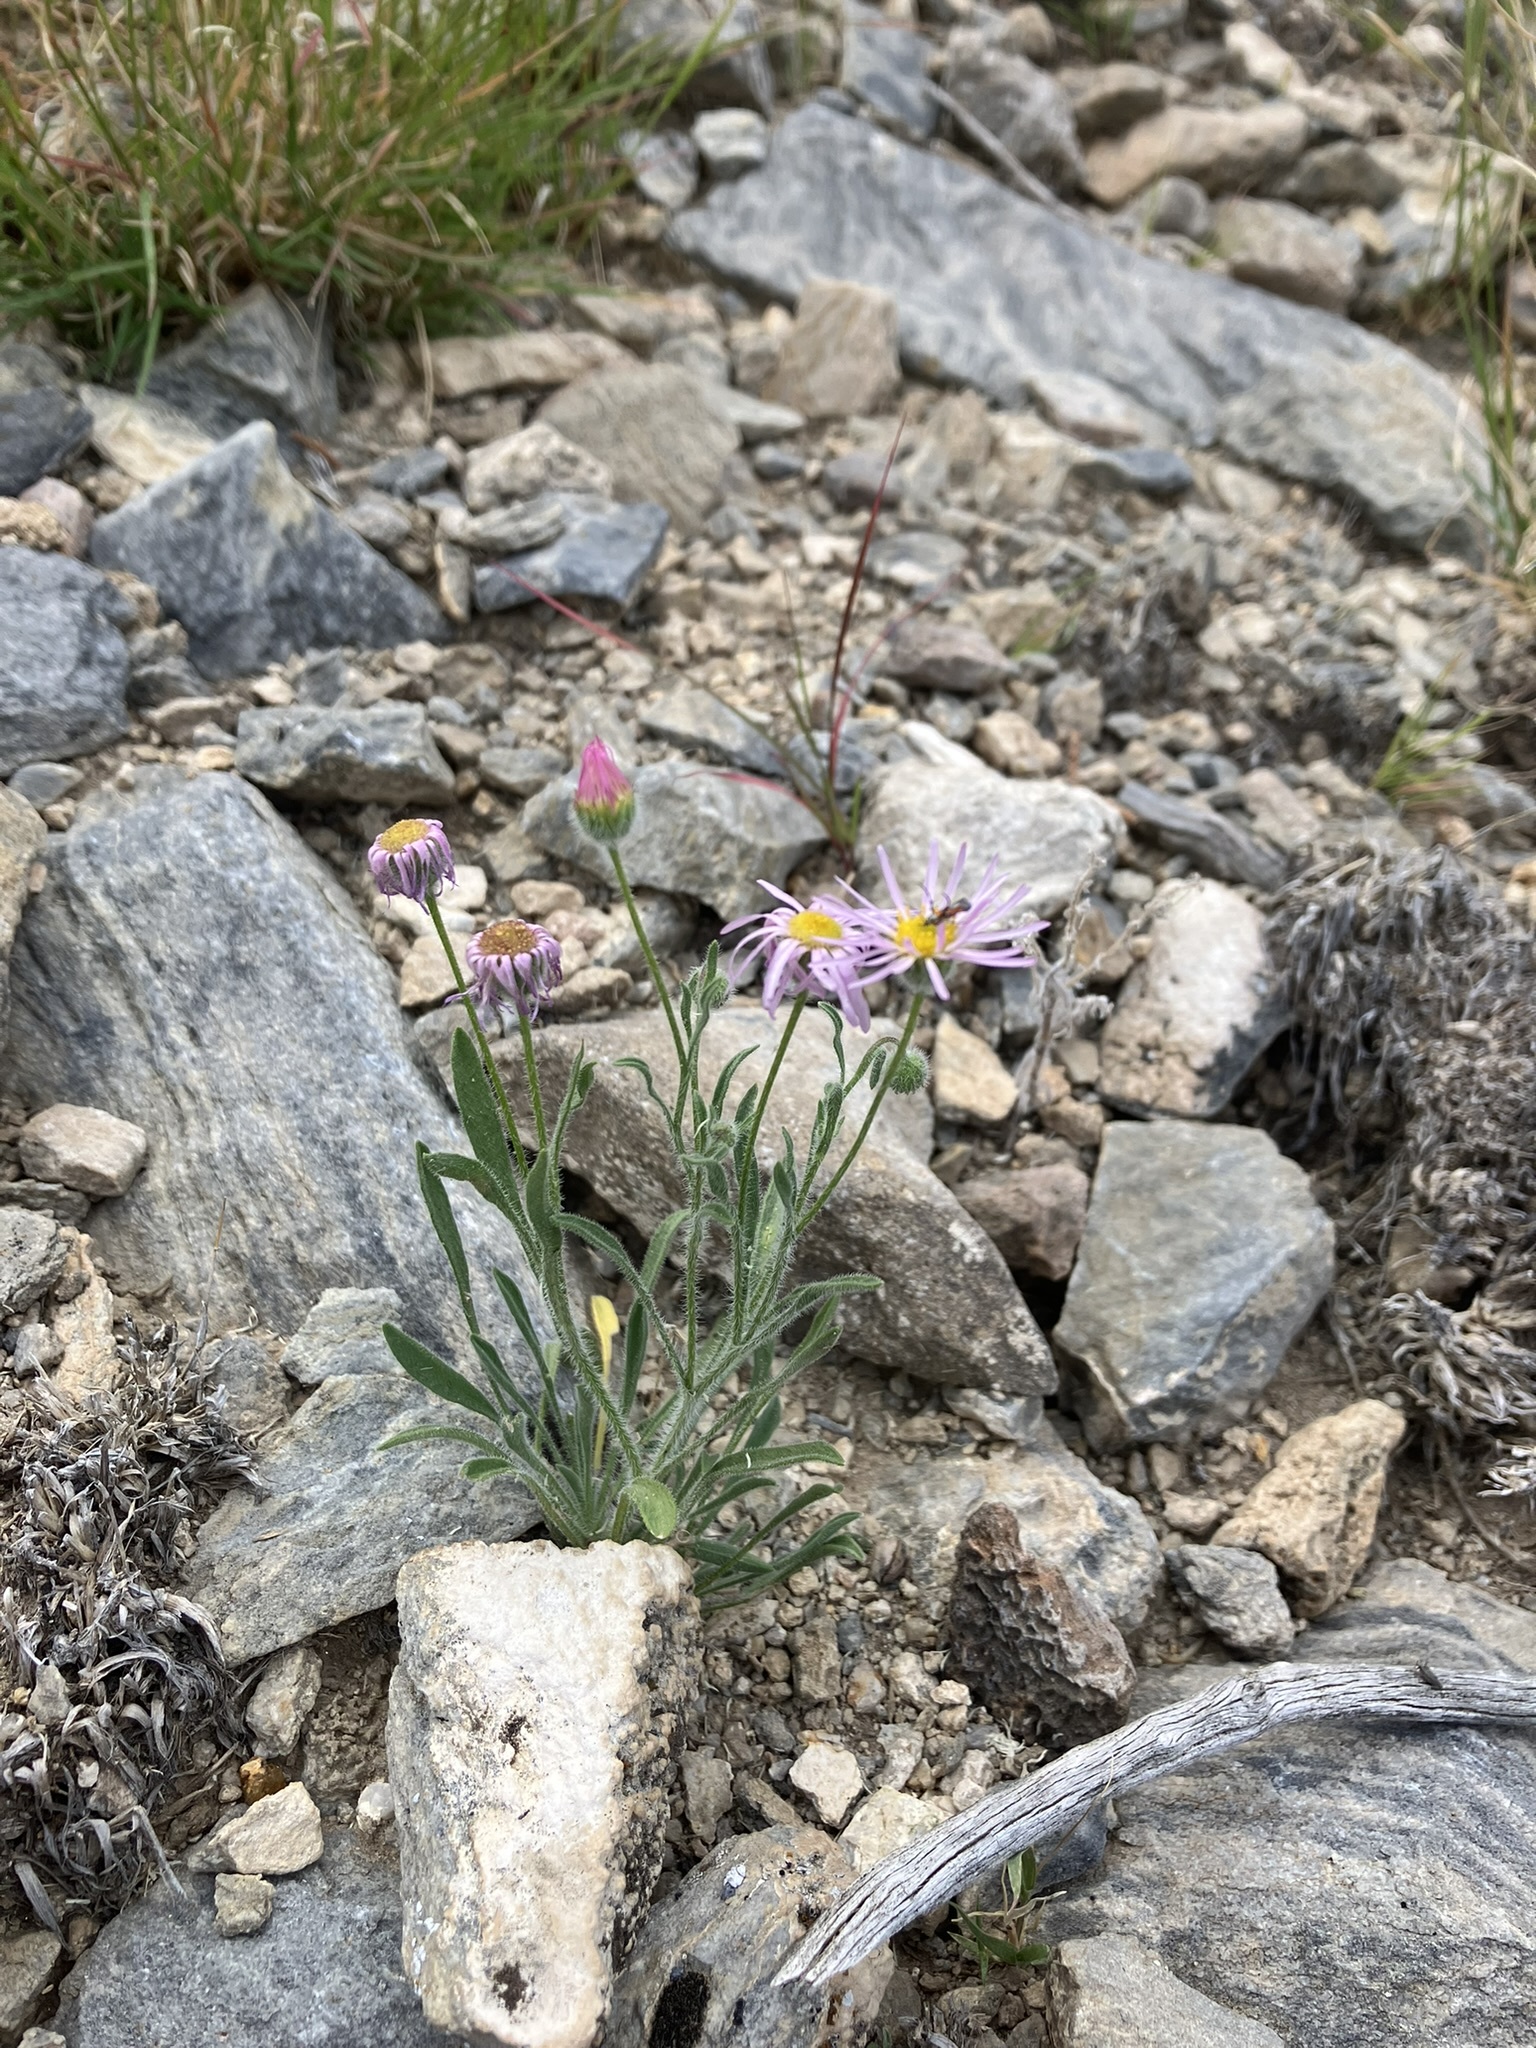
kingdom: Plantae
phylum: Tracheophyta
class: Magnoliopsida
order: Asterales
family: Asteraceae
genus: Erigeron
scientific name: Erigeron concinnus
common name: Navajo fleabane
